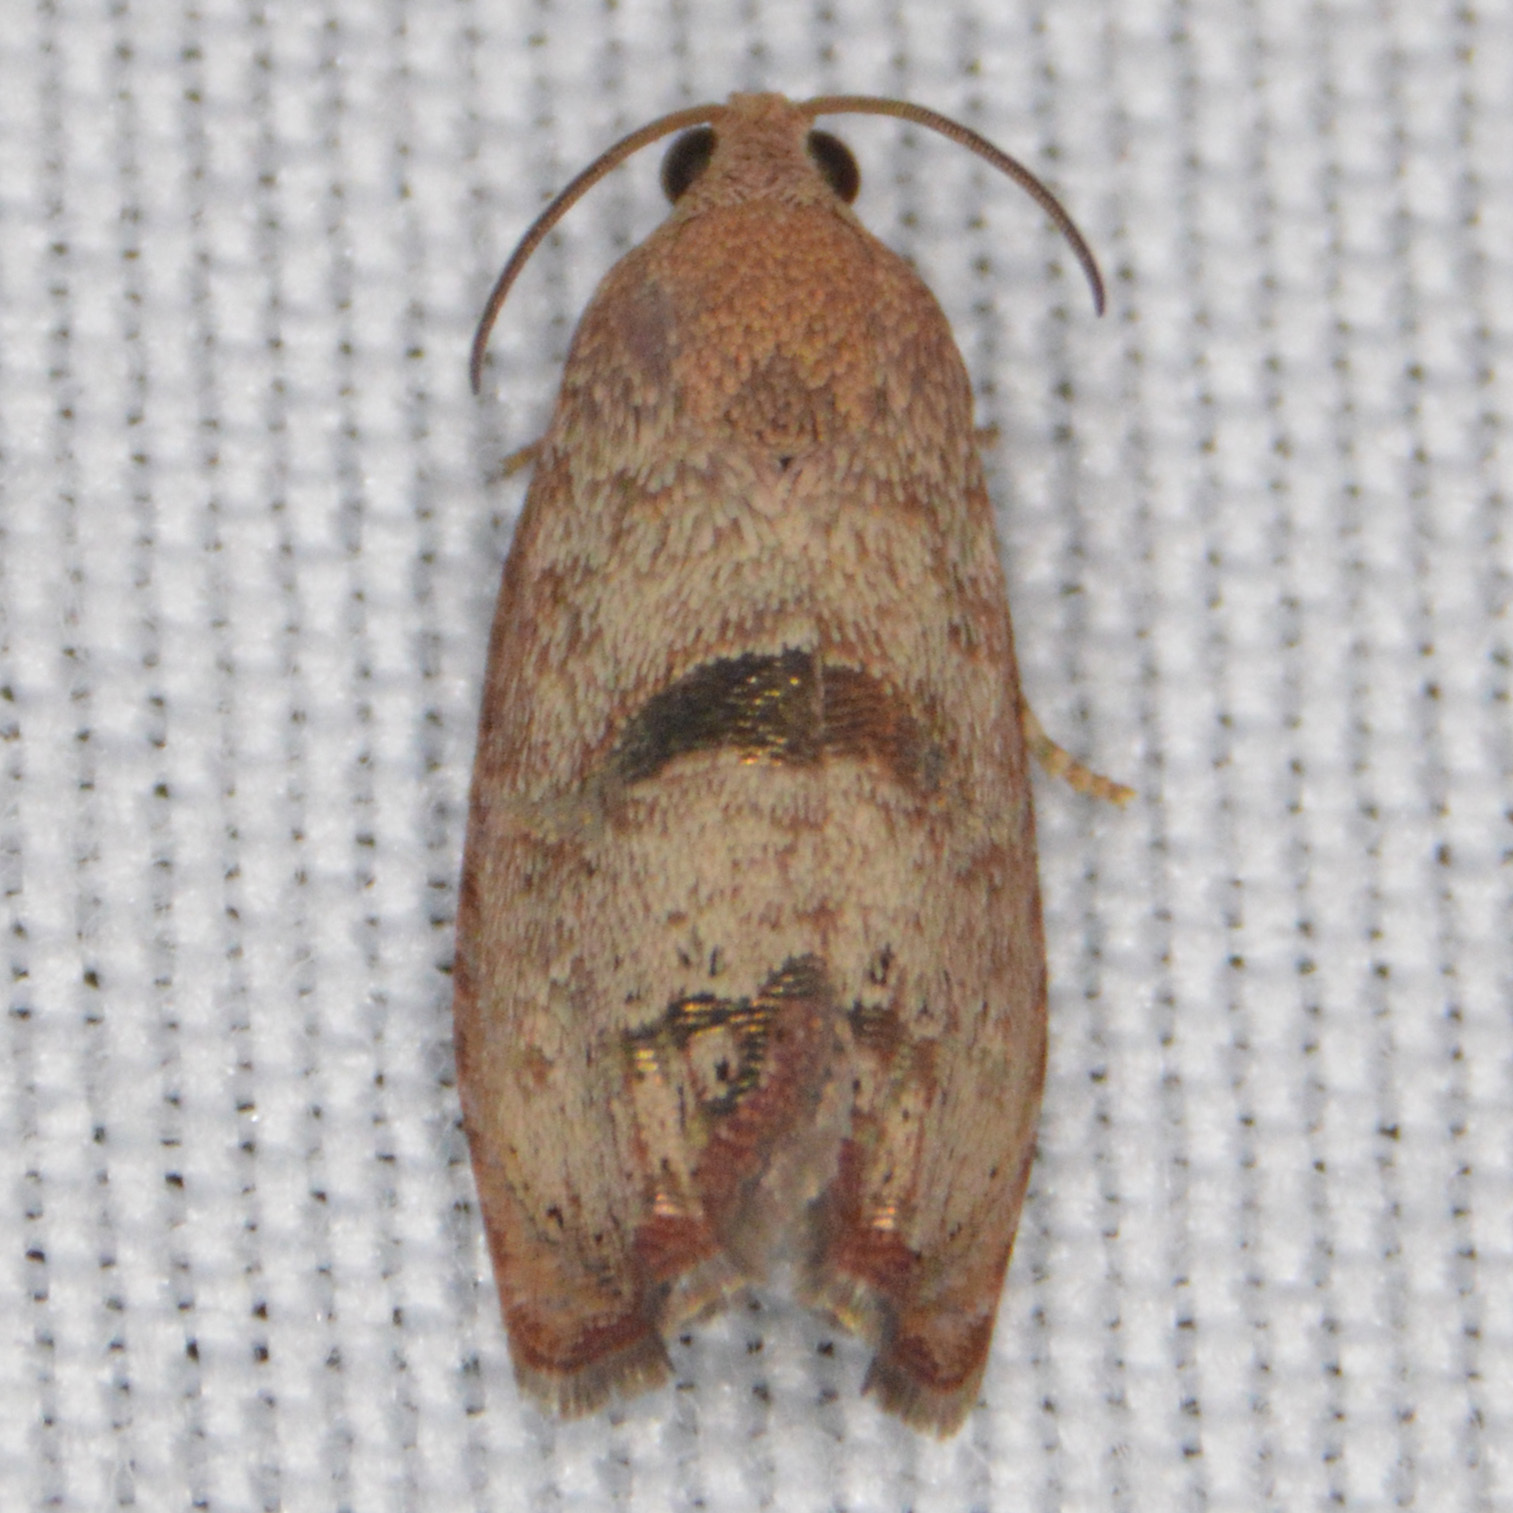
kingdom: Animalia
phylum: Arthropoda
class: Insecta
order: Lepidoptera
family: Tortricidae
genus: Cydia
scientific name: Cydia latiferreana
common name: Filbertworm moth
